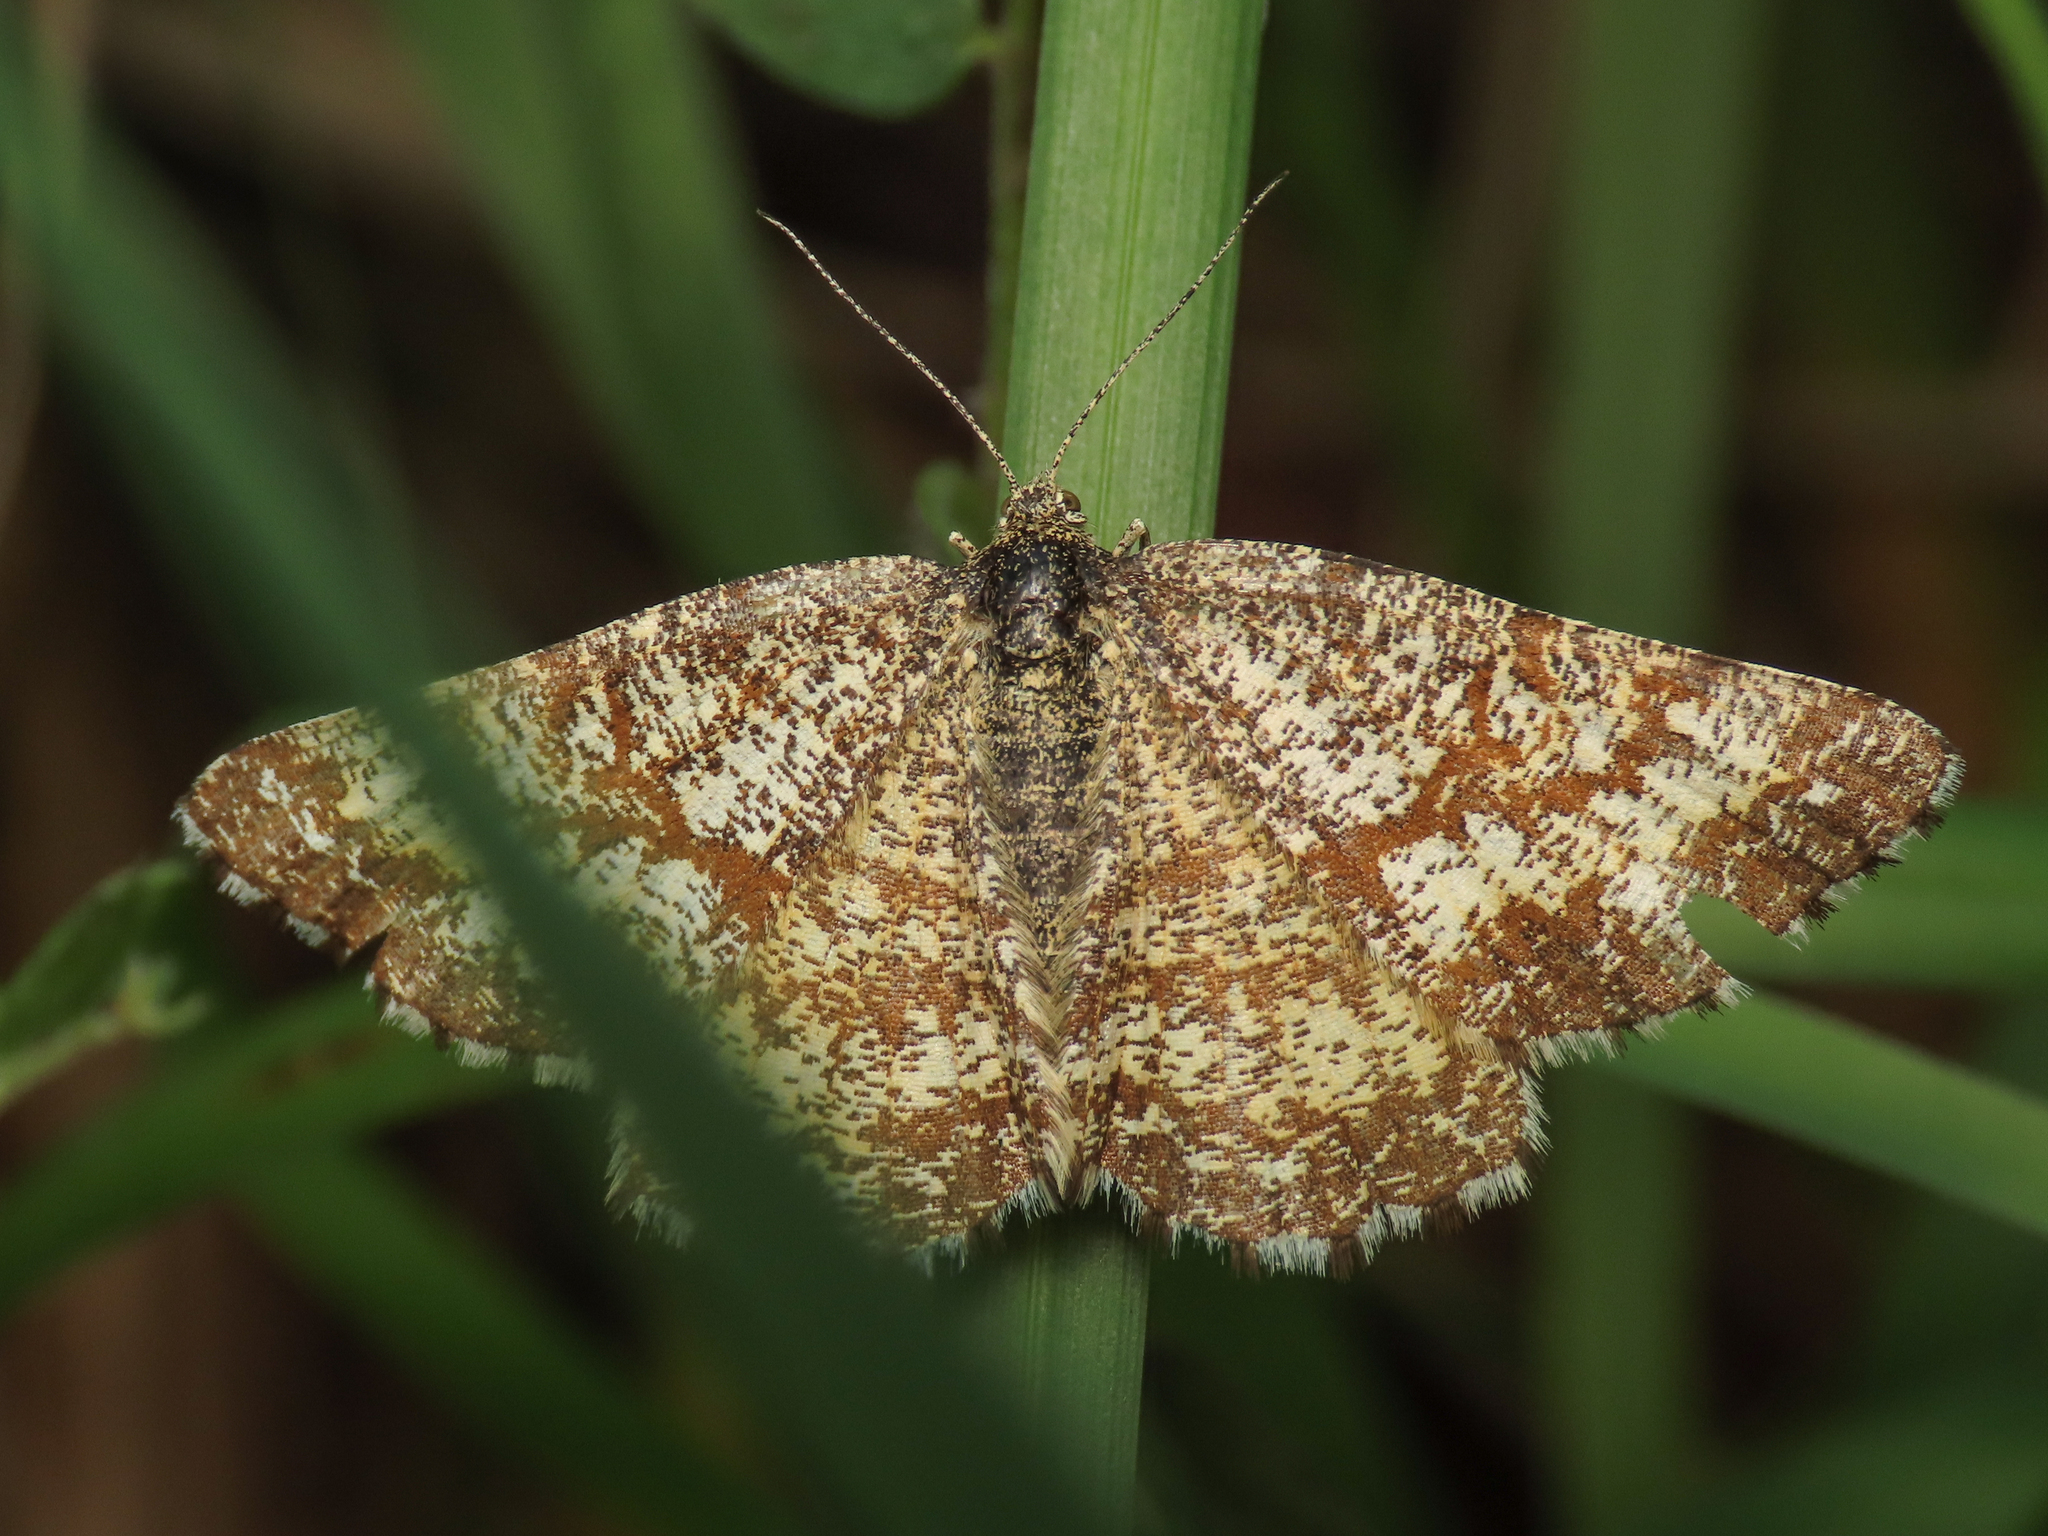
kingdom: Animalia
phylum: Arthropoda
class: Insecta
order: Lepidoptera
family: Geometridae
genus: Ematurga
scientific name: Ematurga atomaria
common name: Common heath
